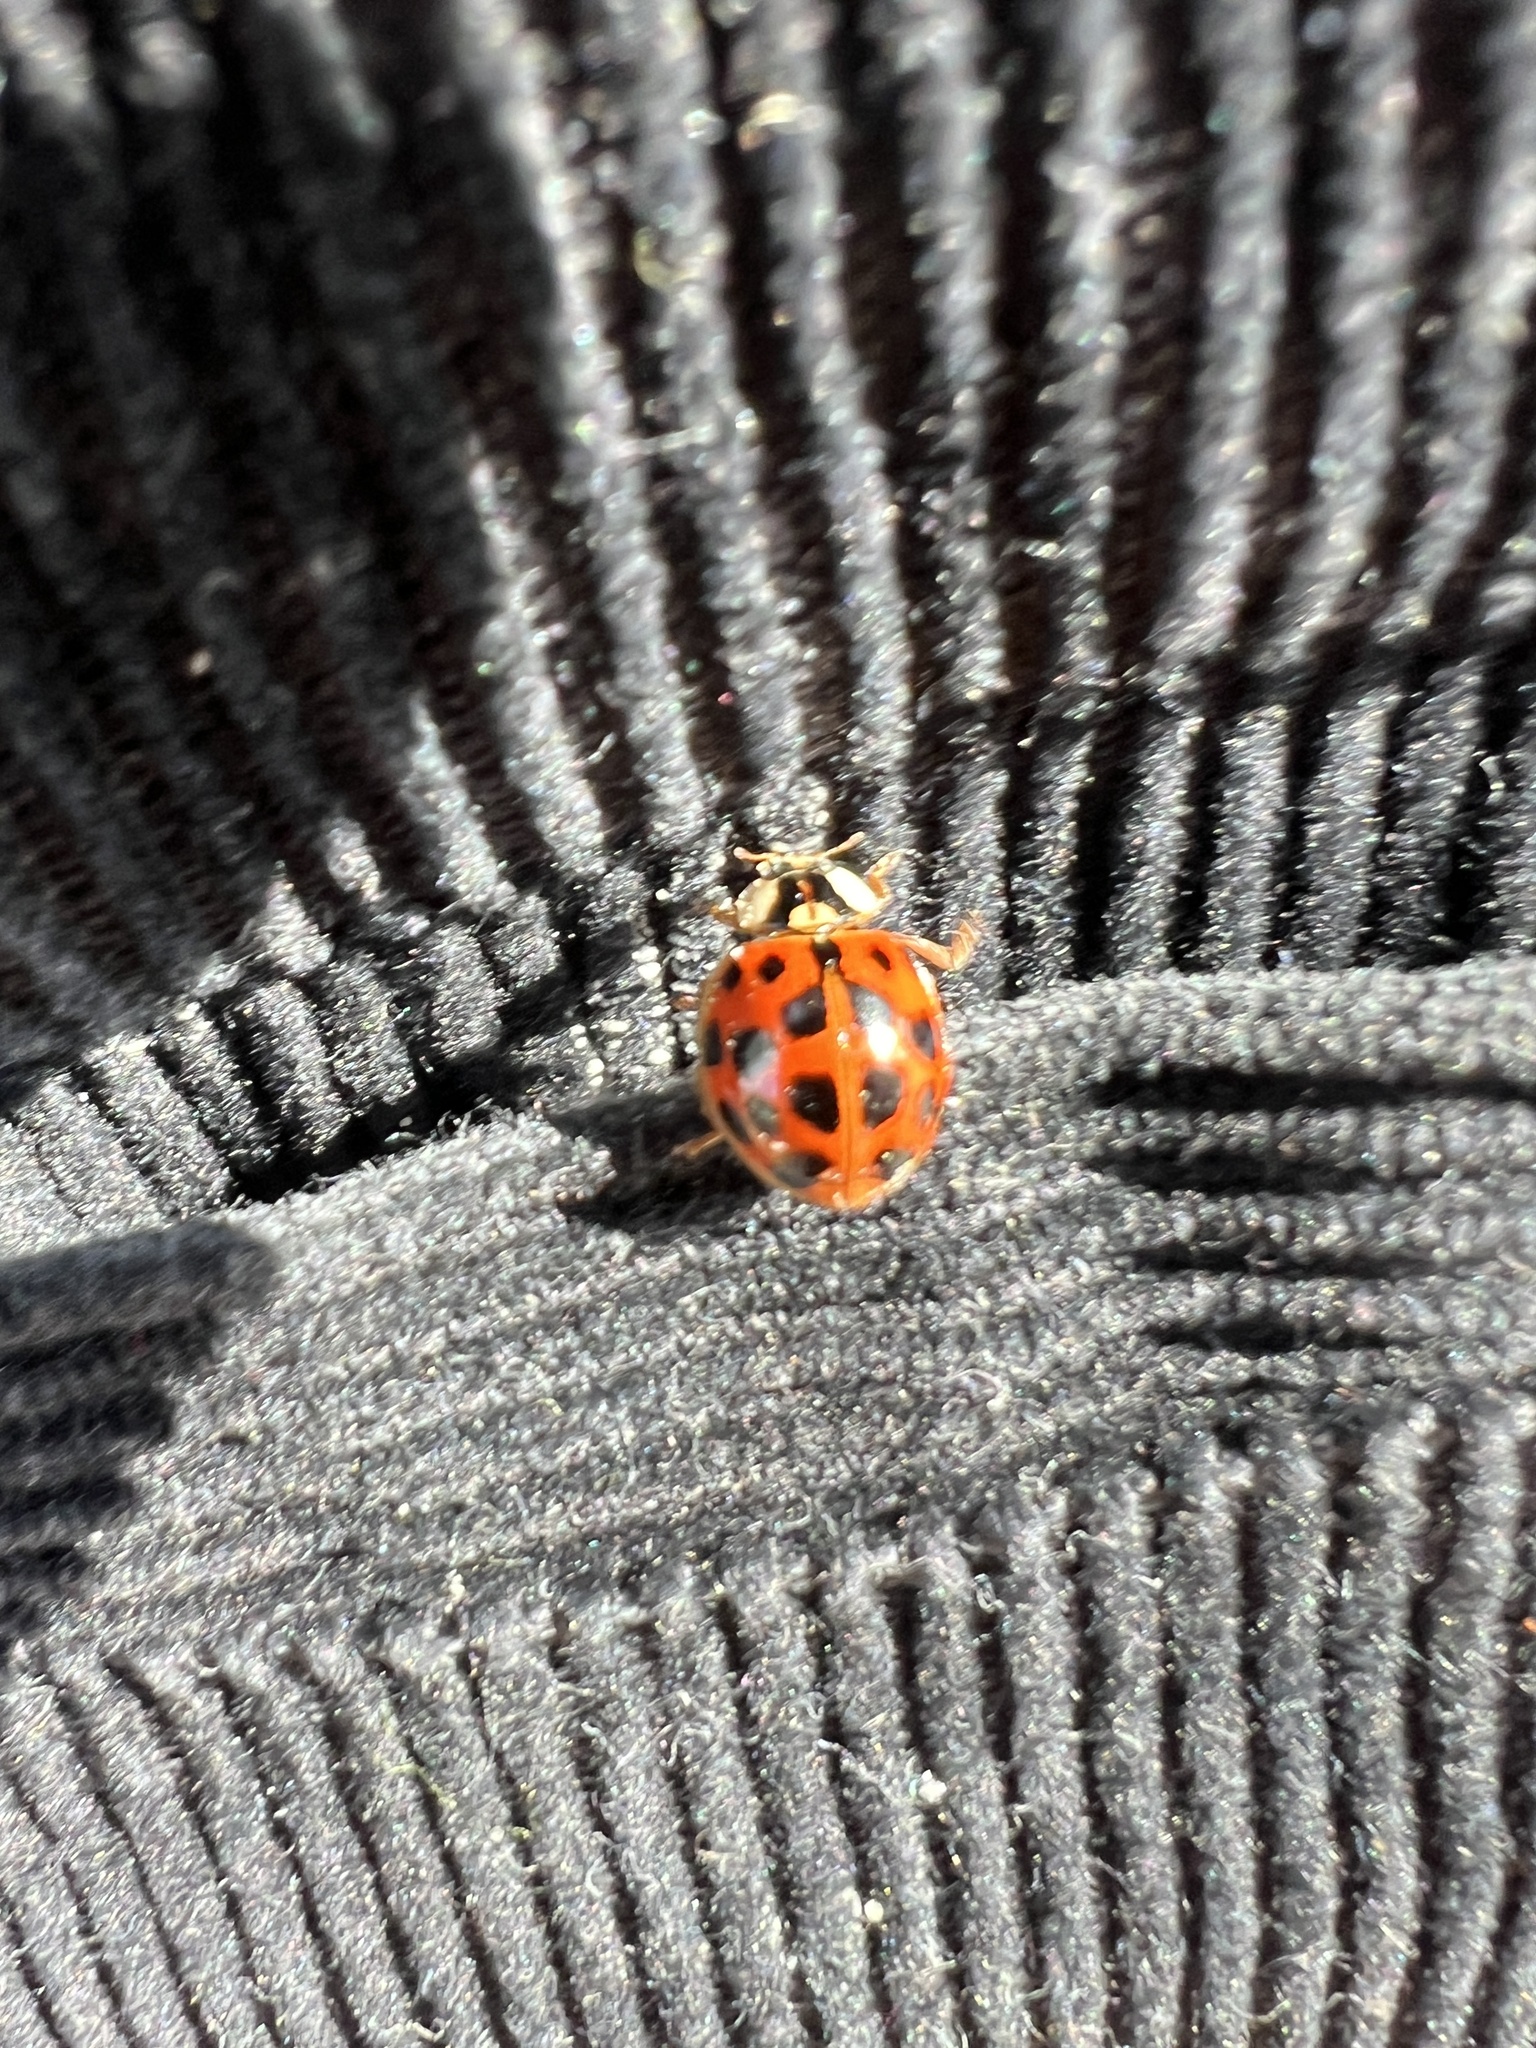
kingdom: Animalia
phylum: Arthropoda
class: Insecta
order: Coleoptera
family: Coccinellidae
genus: Harmonia
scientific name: Harmonia axyridis
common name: Harlequin ladybird
